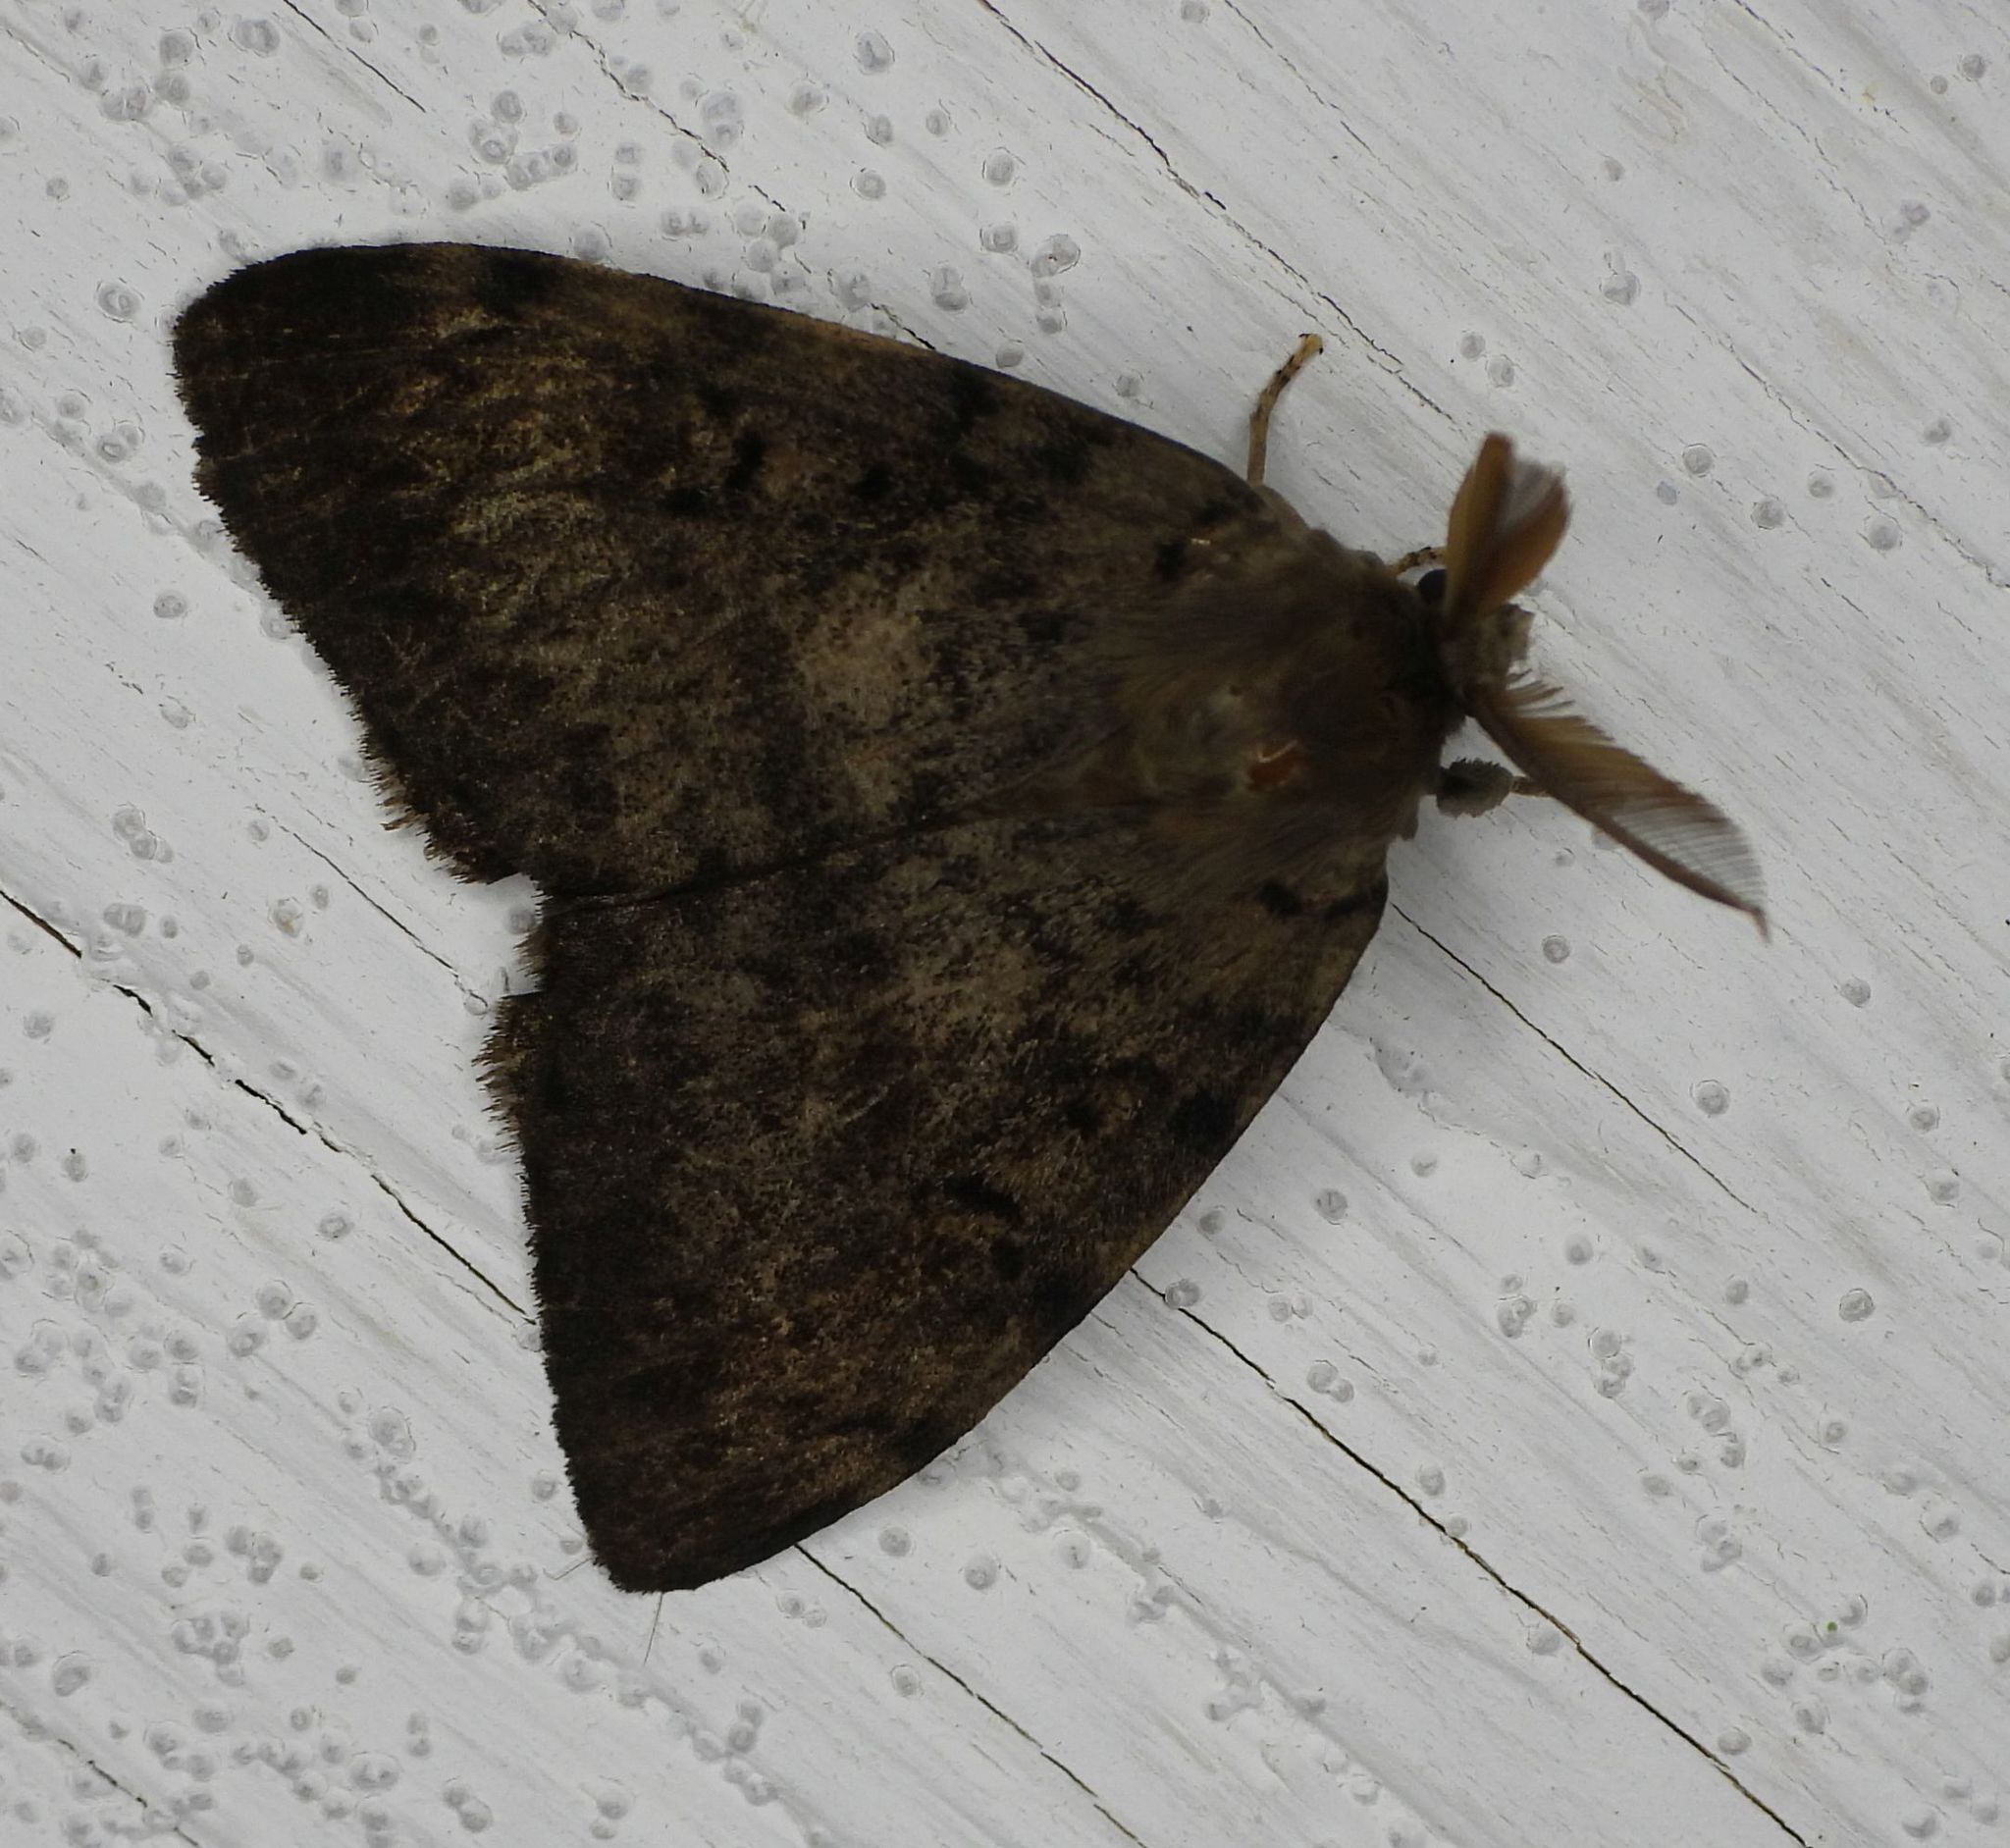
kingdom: Animalia
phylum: Arthropoda
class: Insecta
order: Lepidoptera
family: Erebidae
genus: Lymantria
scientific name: Lymantria dispar
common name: Gypsy moth
